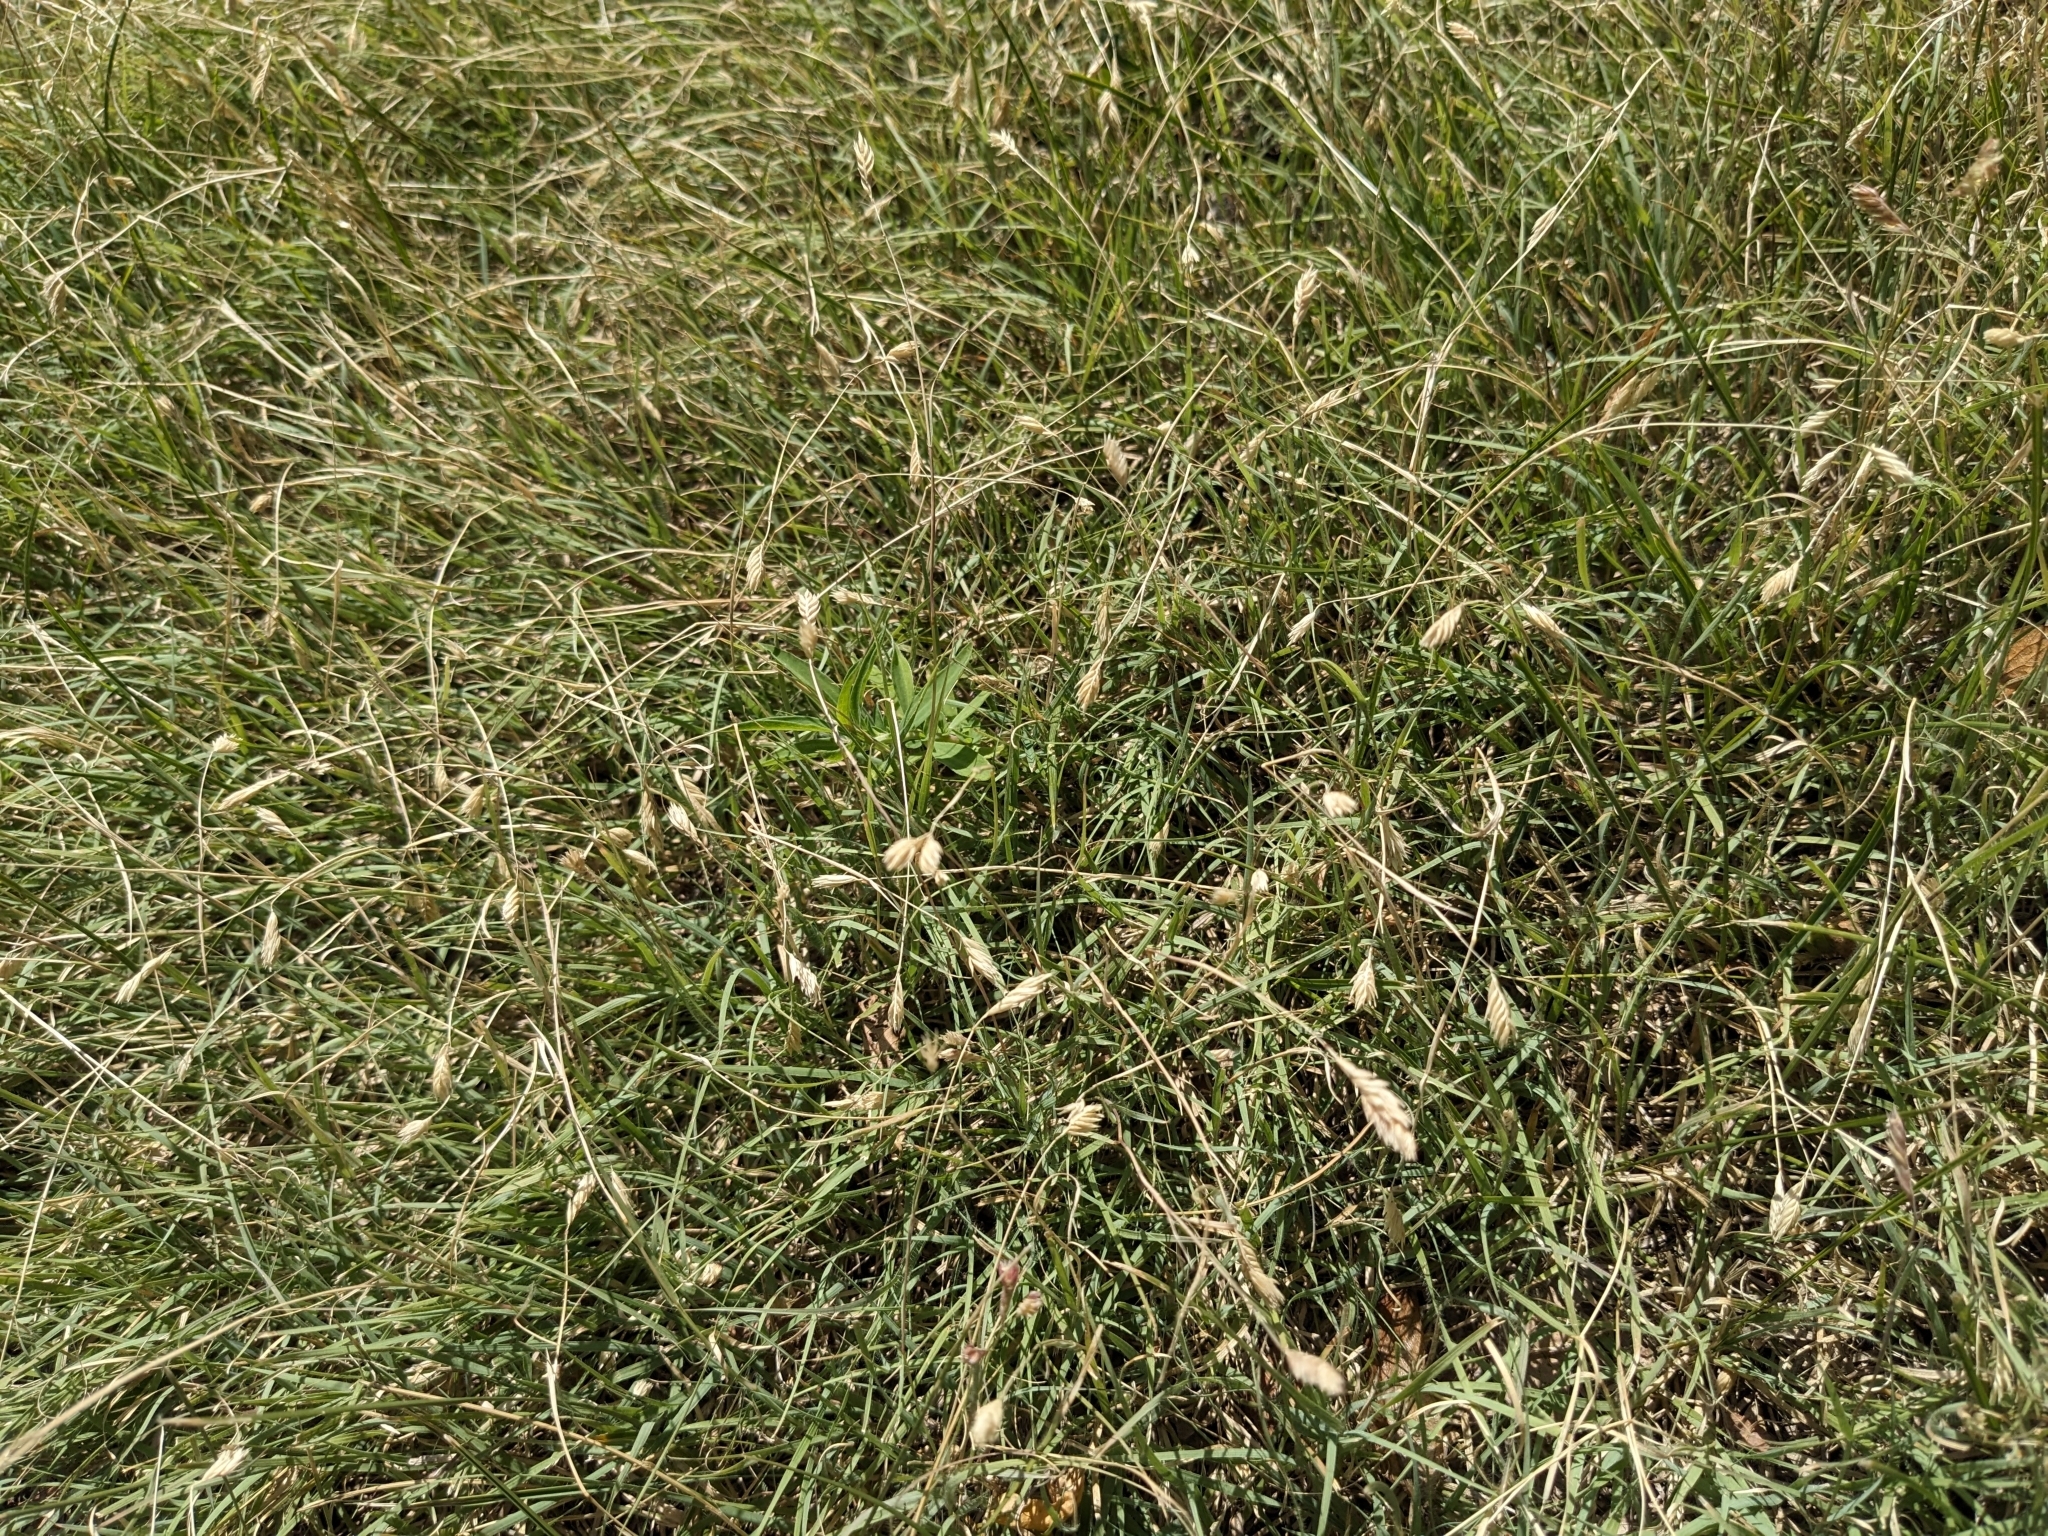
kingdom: Plantae
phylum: Tracheophyta
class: Liliopsida
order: Poales
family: Poaceae
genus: Bouteloua
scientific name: Bouteloua dactyloides
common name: Buffalo grass
